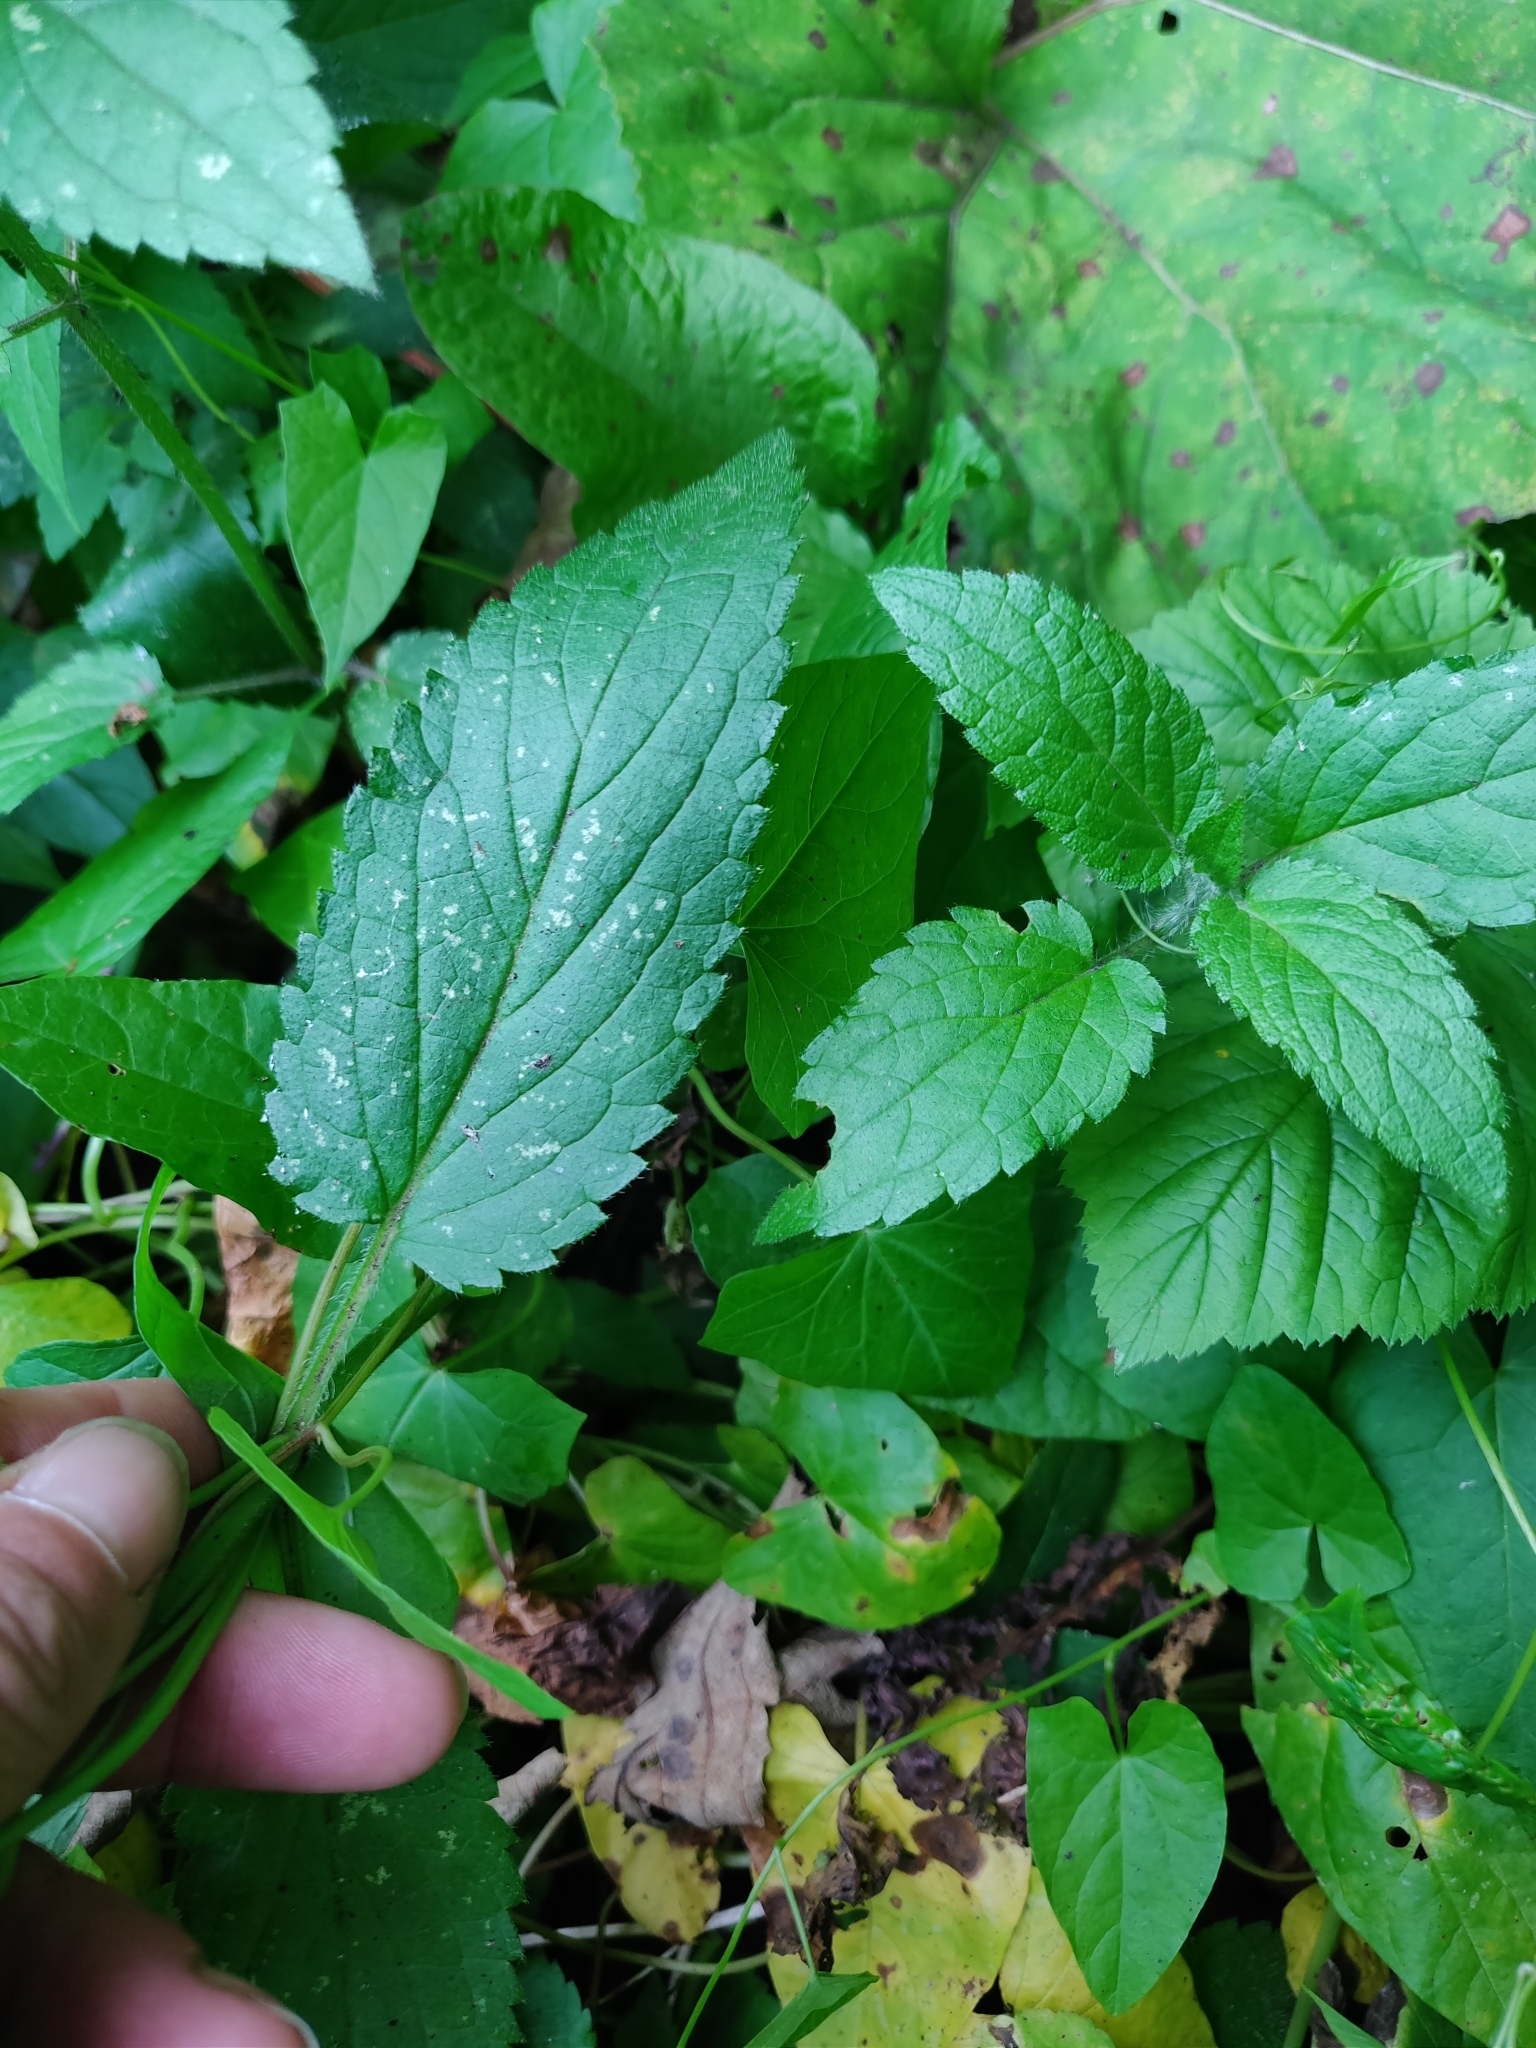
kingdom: Plantae
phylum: Tracheophyta
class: Magnoliopsida
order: Lamiales
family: Lamiaceae
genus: Stachys
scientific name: Stachys ambigua
